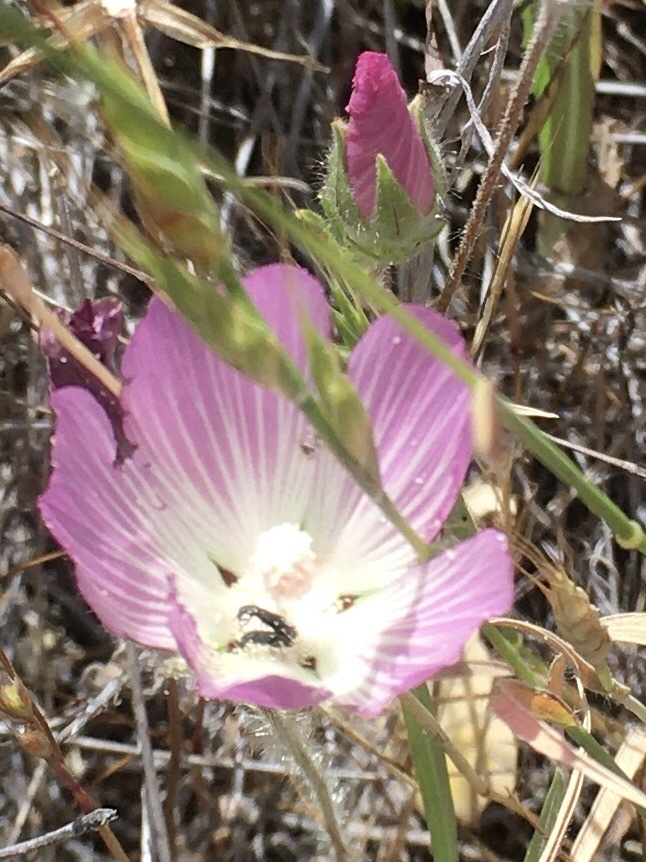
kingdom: Plantae
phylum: Tracheophyta
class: Magnoliopsida
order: Malvales
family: Malvaceae
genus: Sidalcea
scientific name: Sidalcea diploscypha
